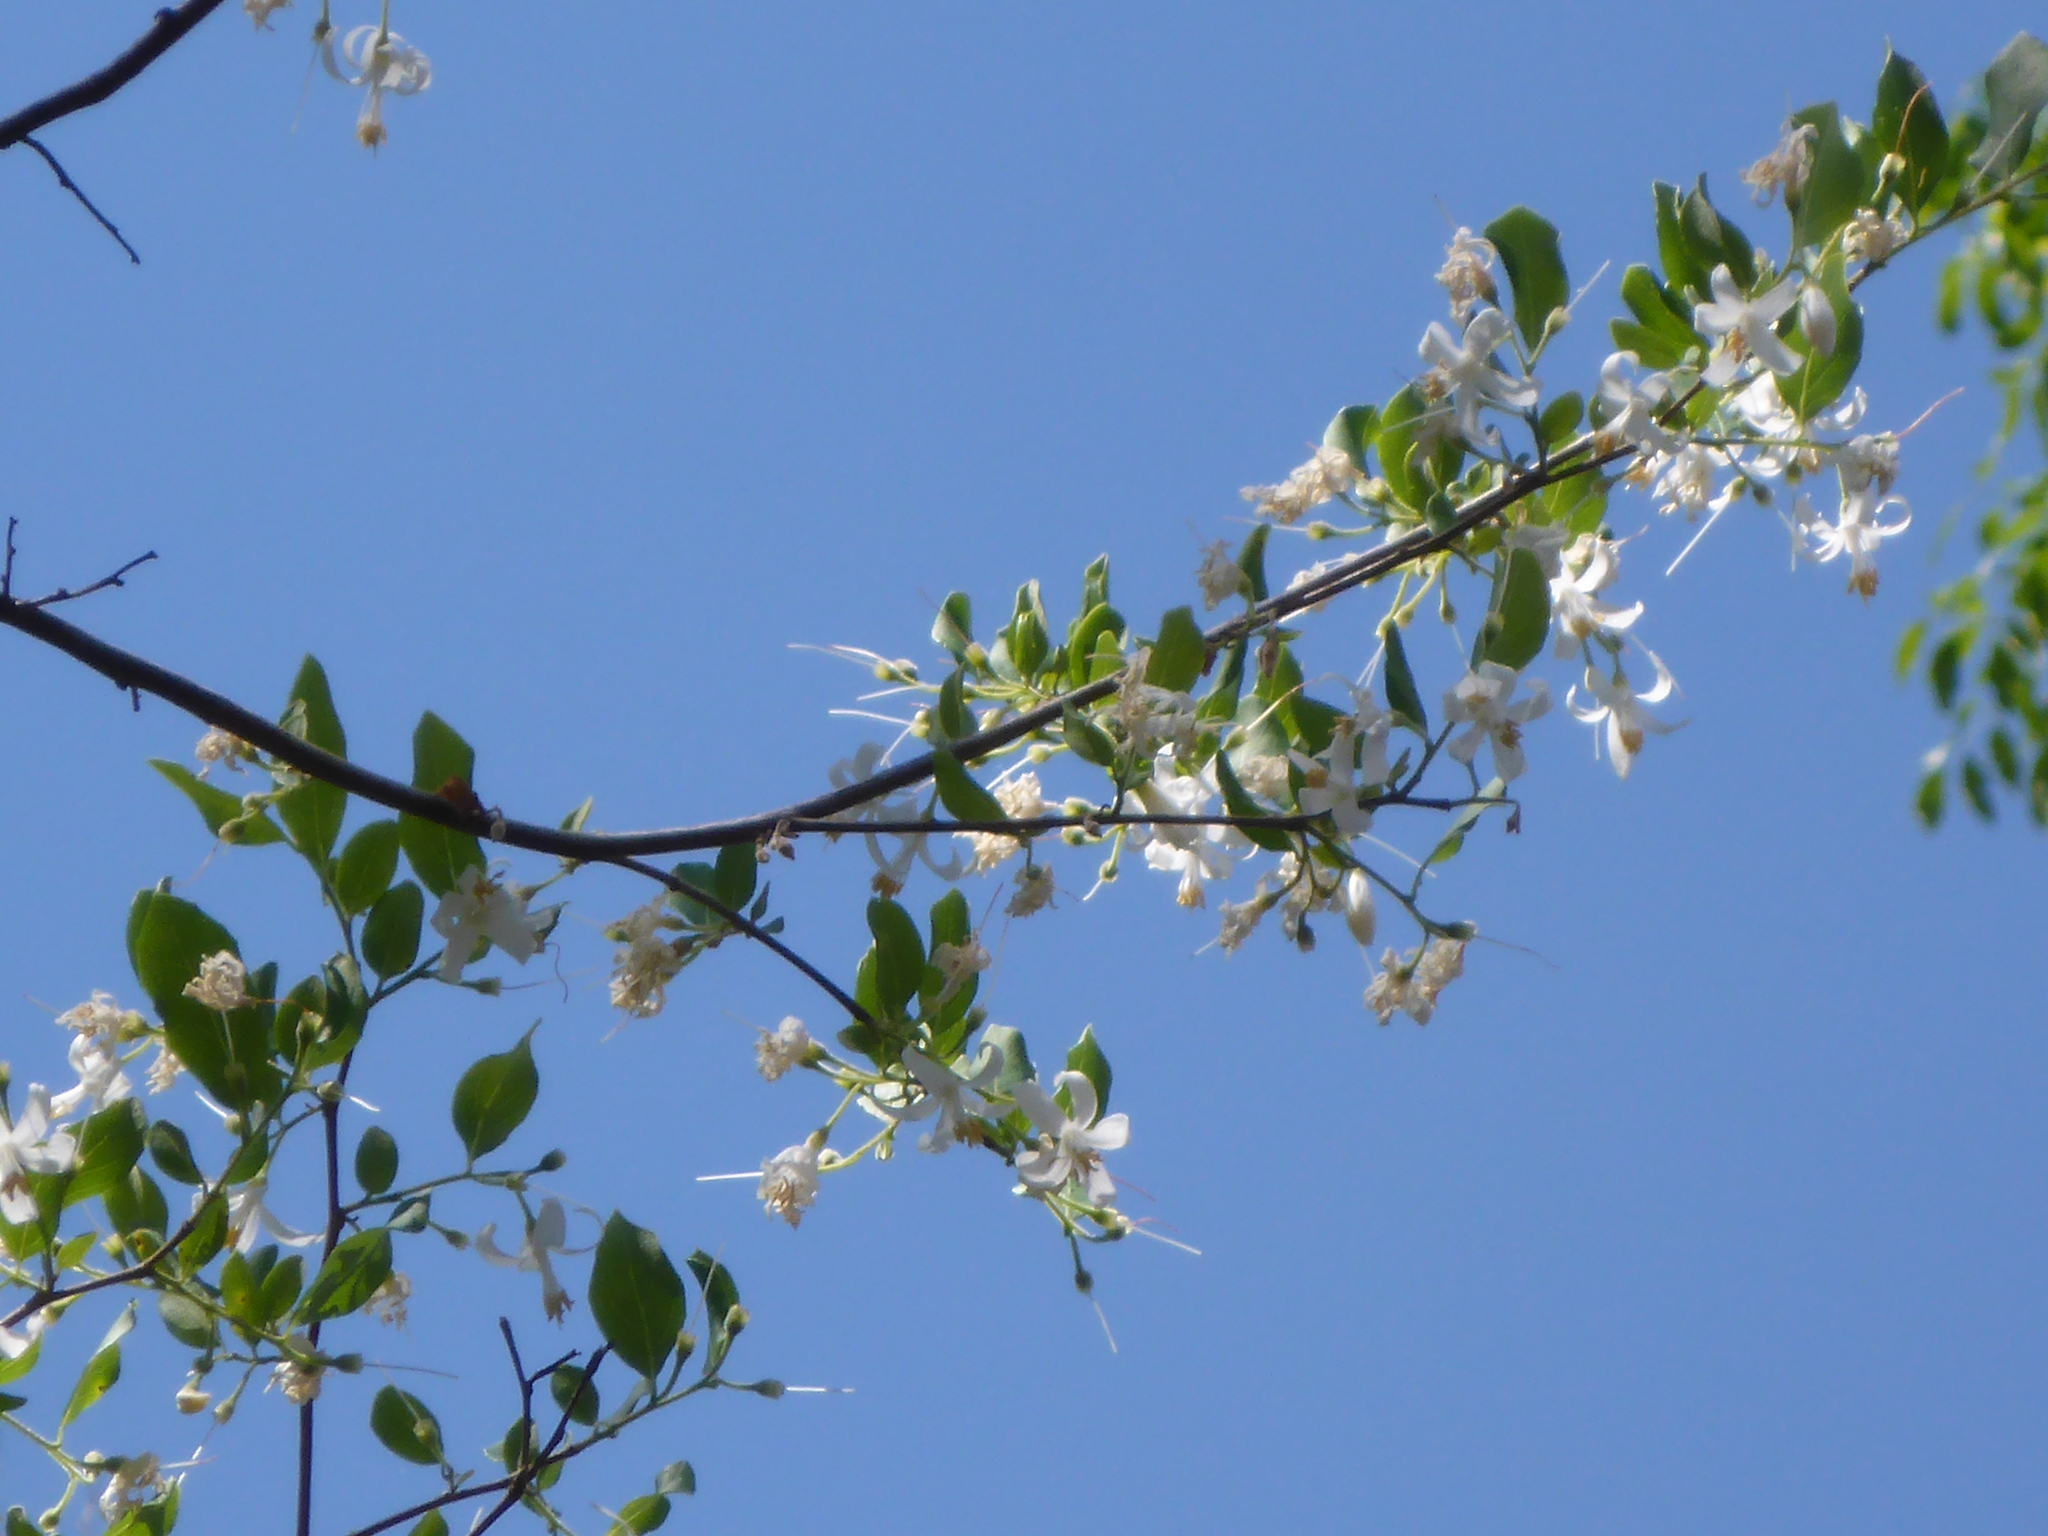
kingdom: Plantae
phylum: Tracheophyta
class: Magnoliopsida
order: Ericales
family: Styracaceae
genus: Styrax
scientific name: Styrax americanus
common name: American snowbell
